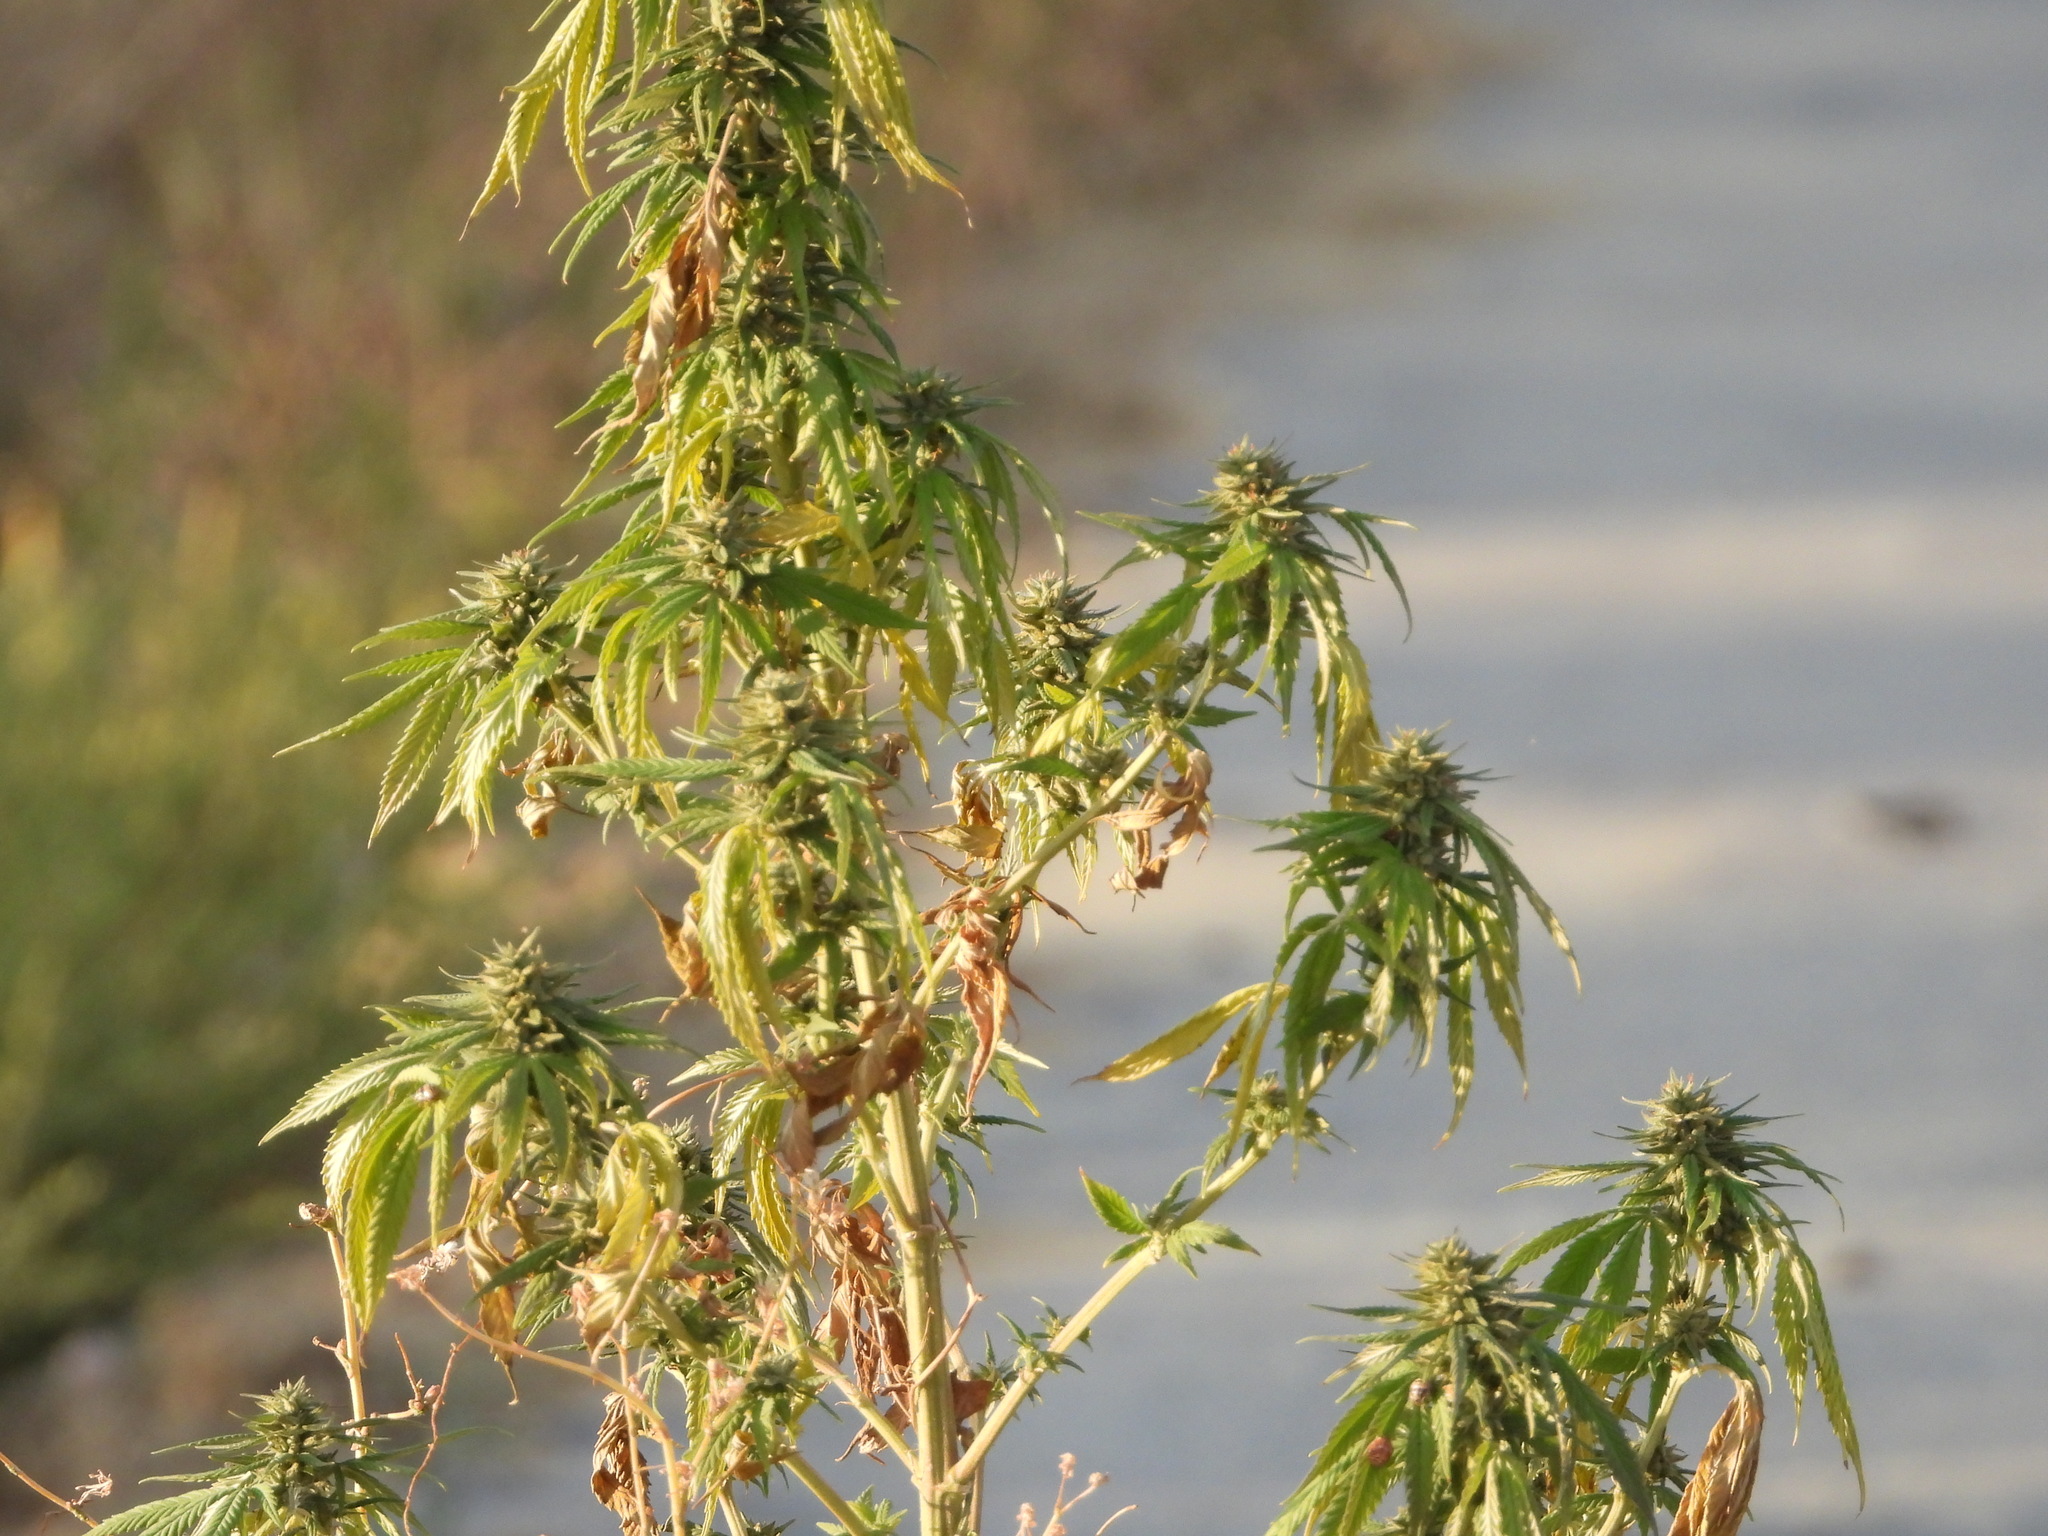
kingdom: Plantae
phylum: Tracheophyta
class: Magnoliopsida
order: Rosales
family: Cannabaceae
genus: Cannabis
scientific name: Cannabis sativa
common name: Hemp
